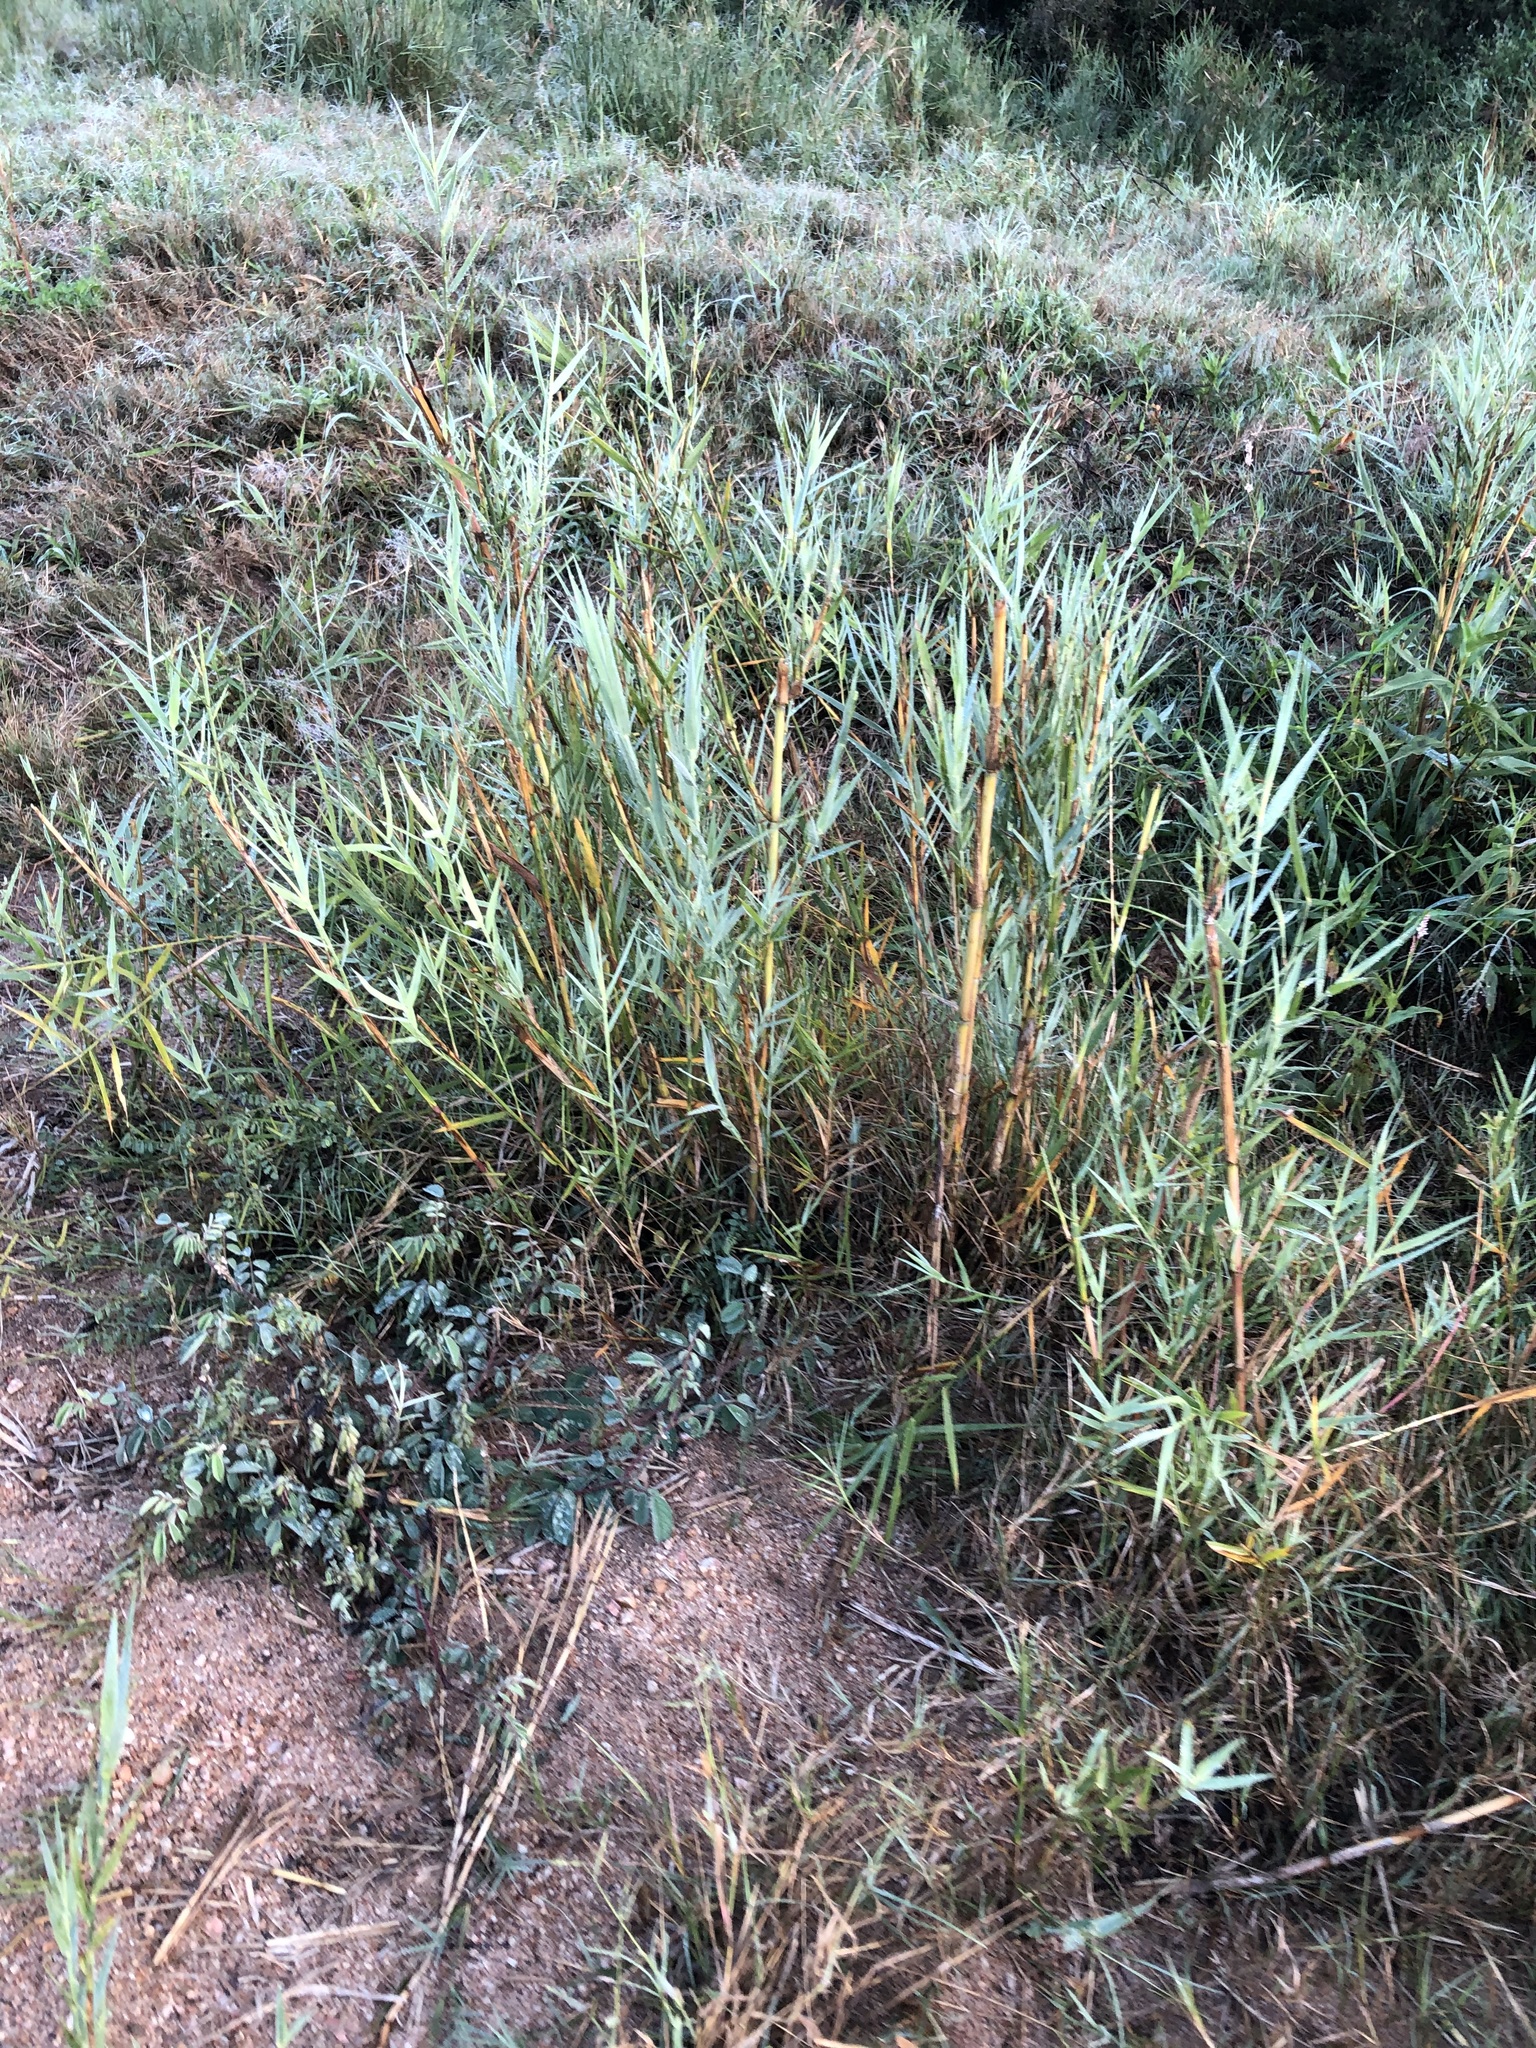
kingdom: Plantae
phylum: Tracheophyta
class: Liliopsida
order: Poales
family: Poaceae
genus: Phragmites
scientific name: Phragmites mauritianus
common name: Reed grass
